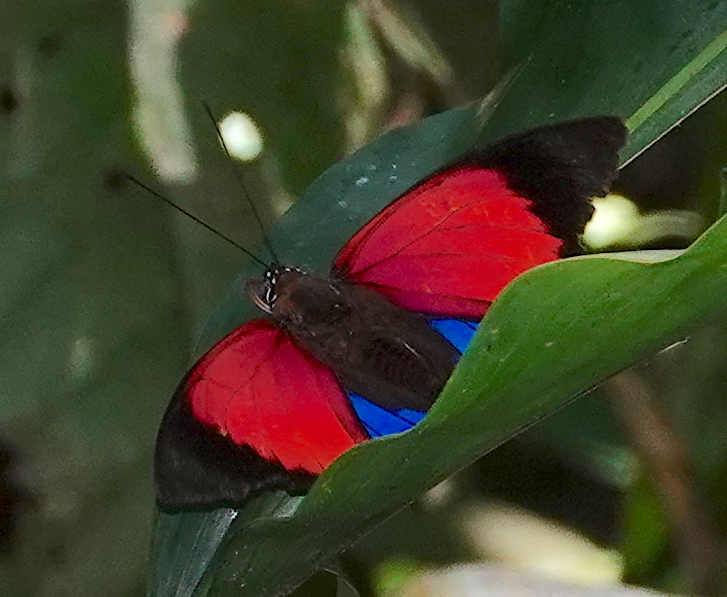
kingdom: Animalia
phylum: Arthropoda
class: Insecta
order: Lepidoptera
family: Nymphalidae
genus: Prepona
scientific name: Prepona claudina
